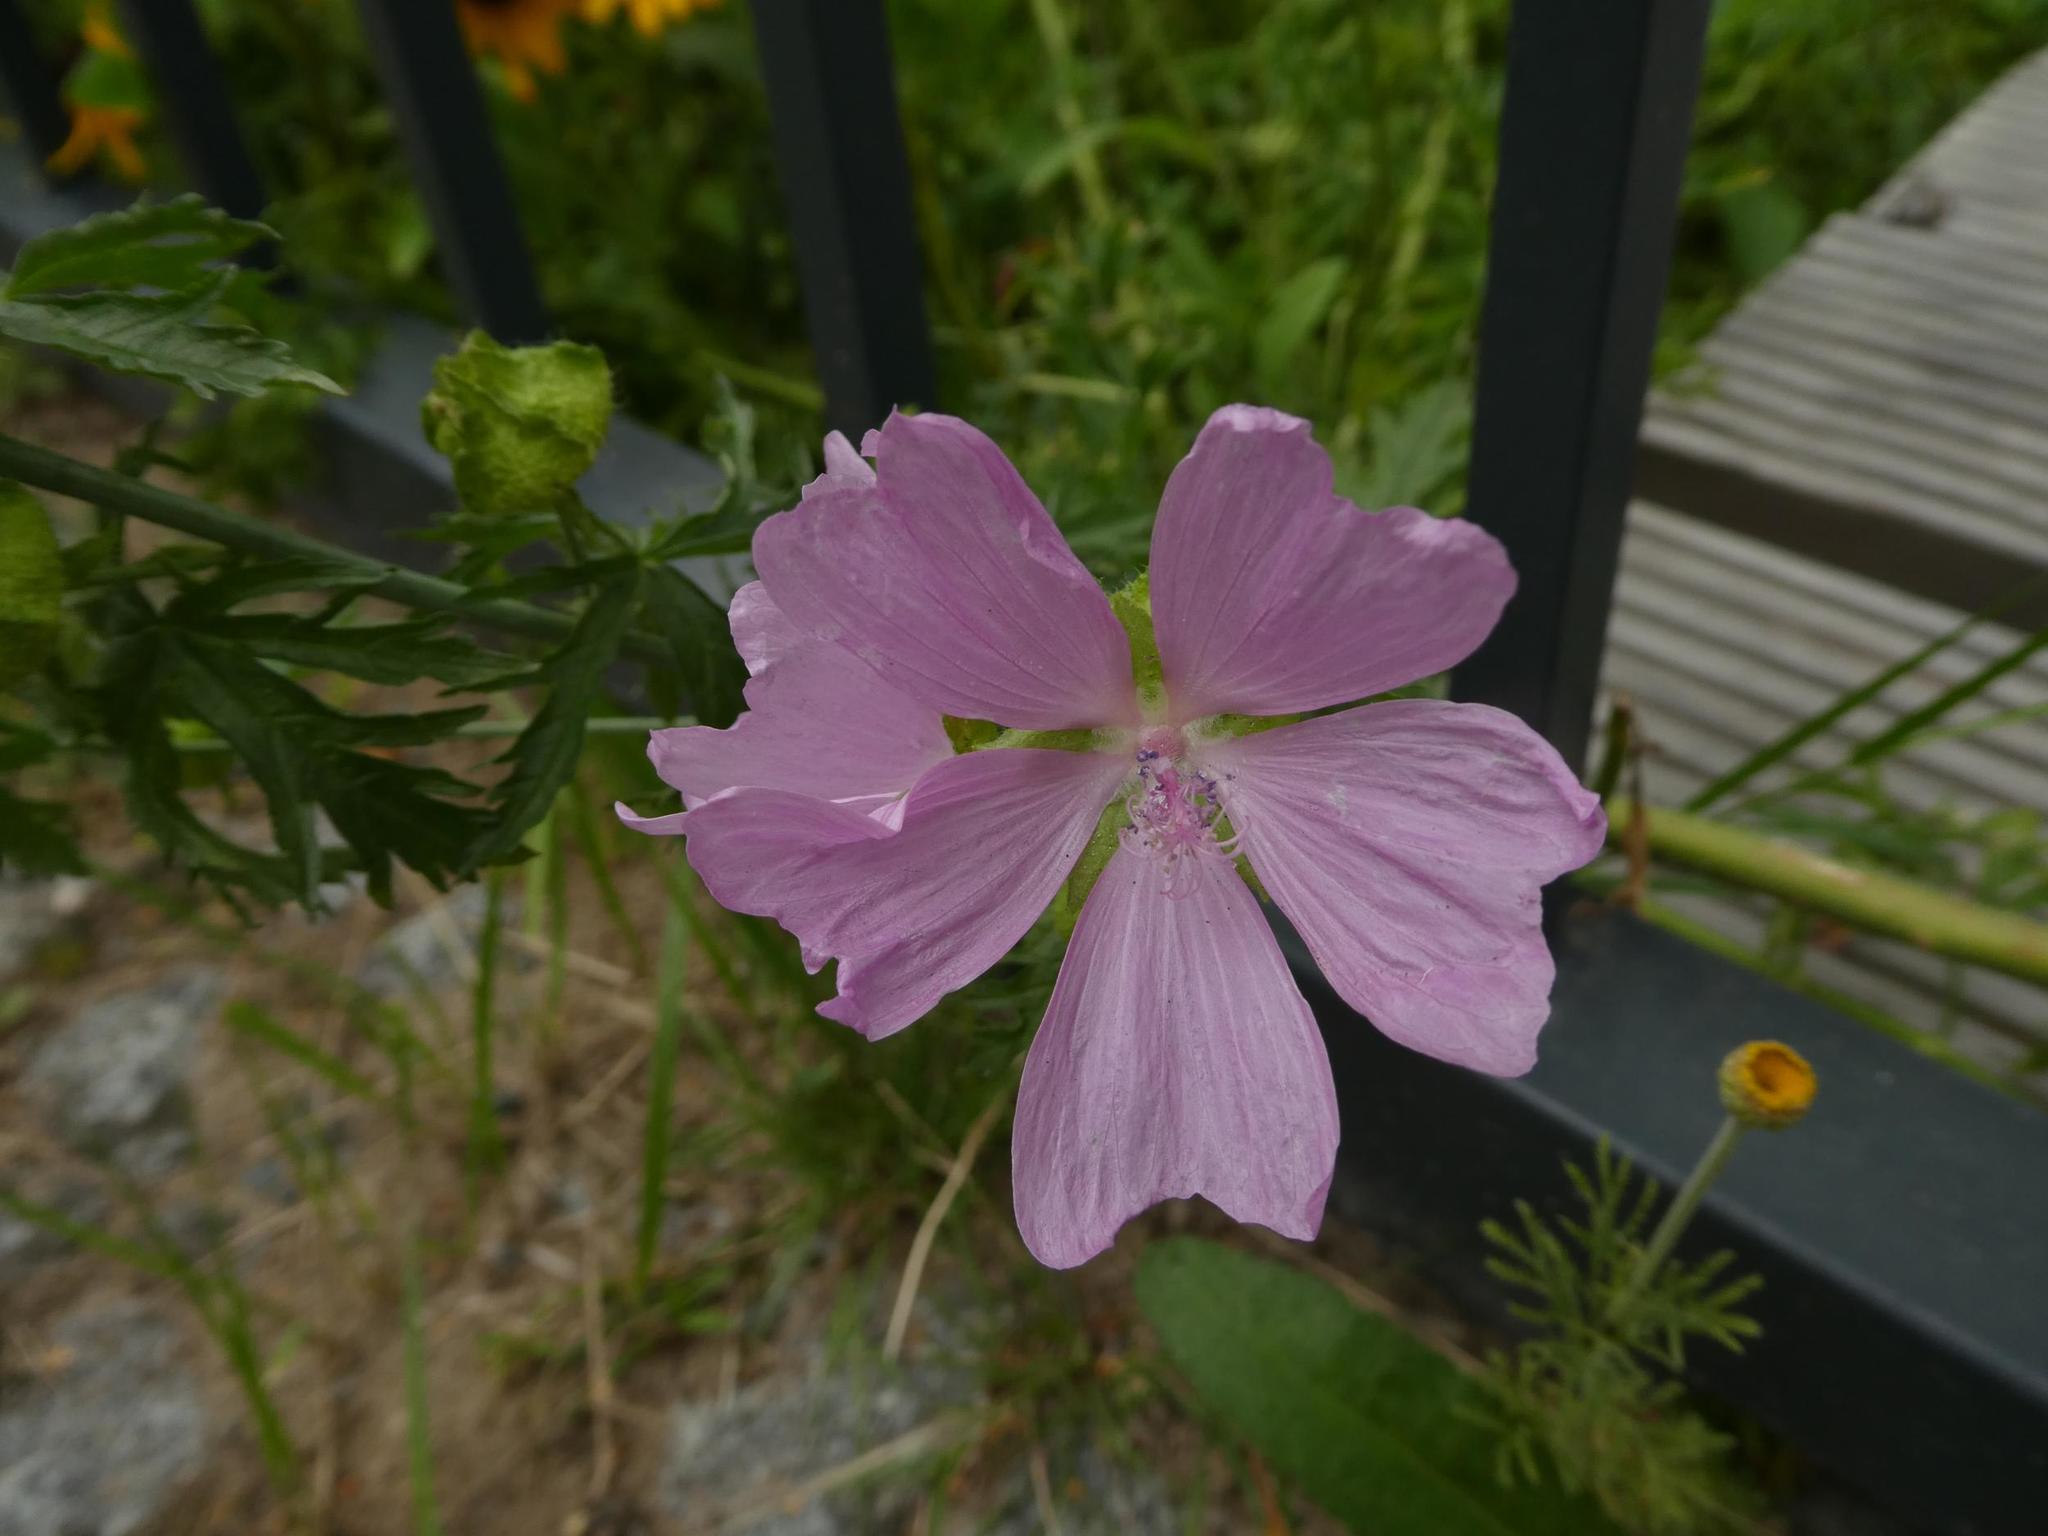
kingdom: Plantae
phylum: Tracheophyta
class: Magnoliopsida
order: Malvales
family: Malvaceae
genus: Malva
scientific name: Malva moschata
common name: Musk mallow
